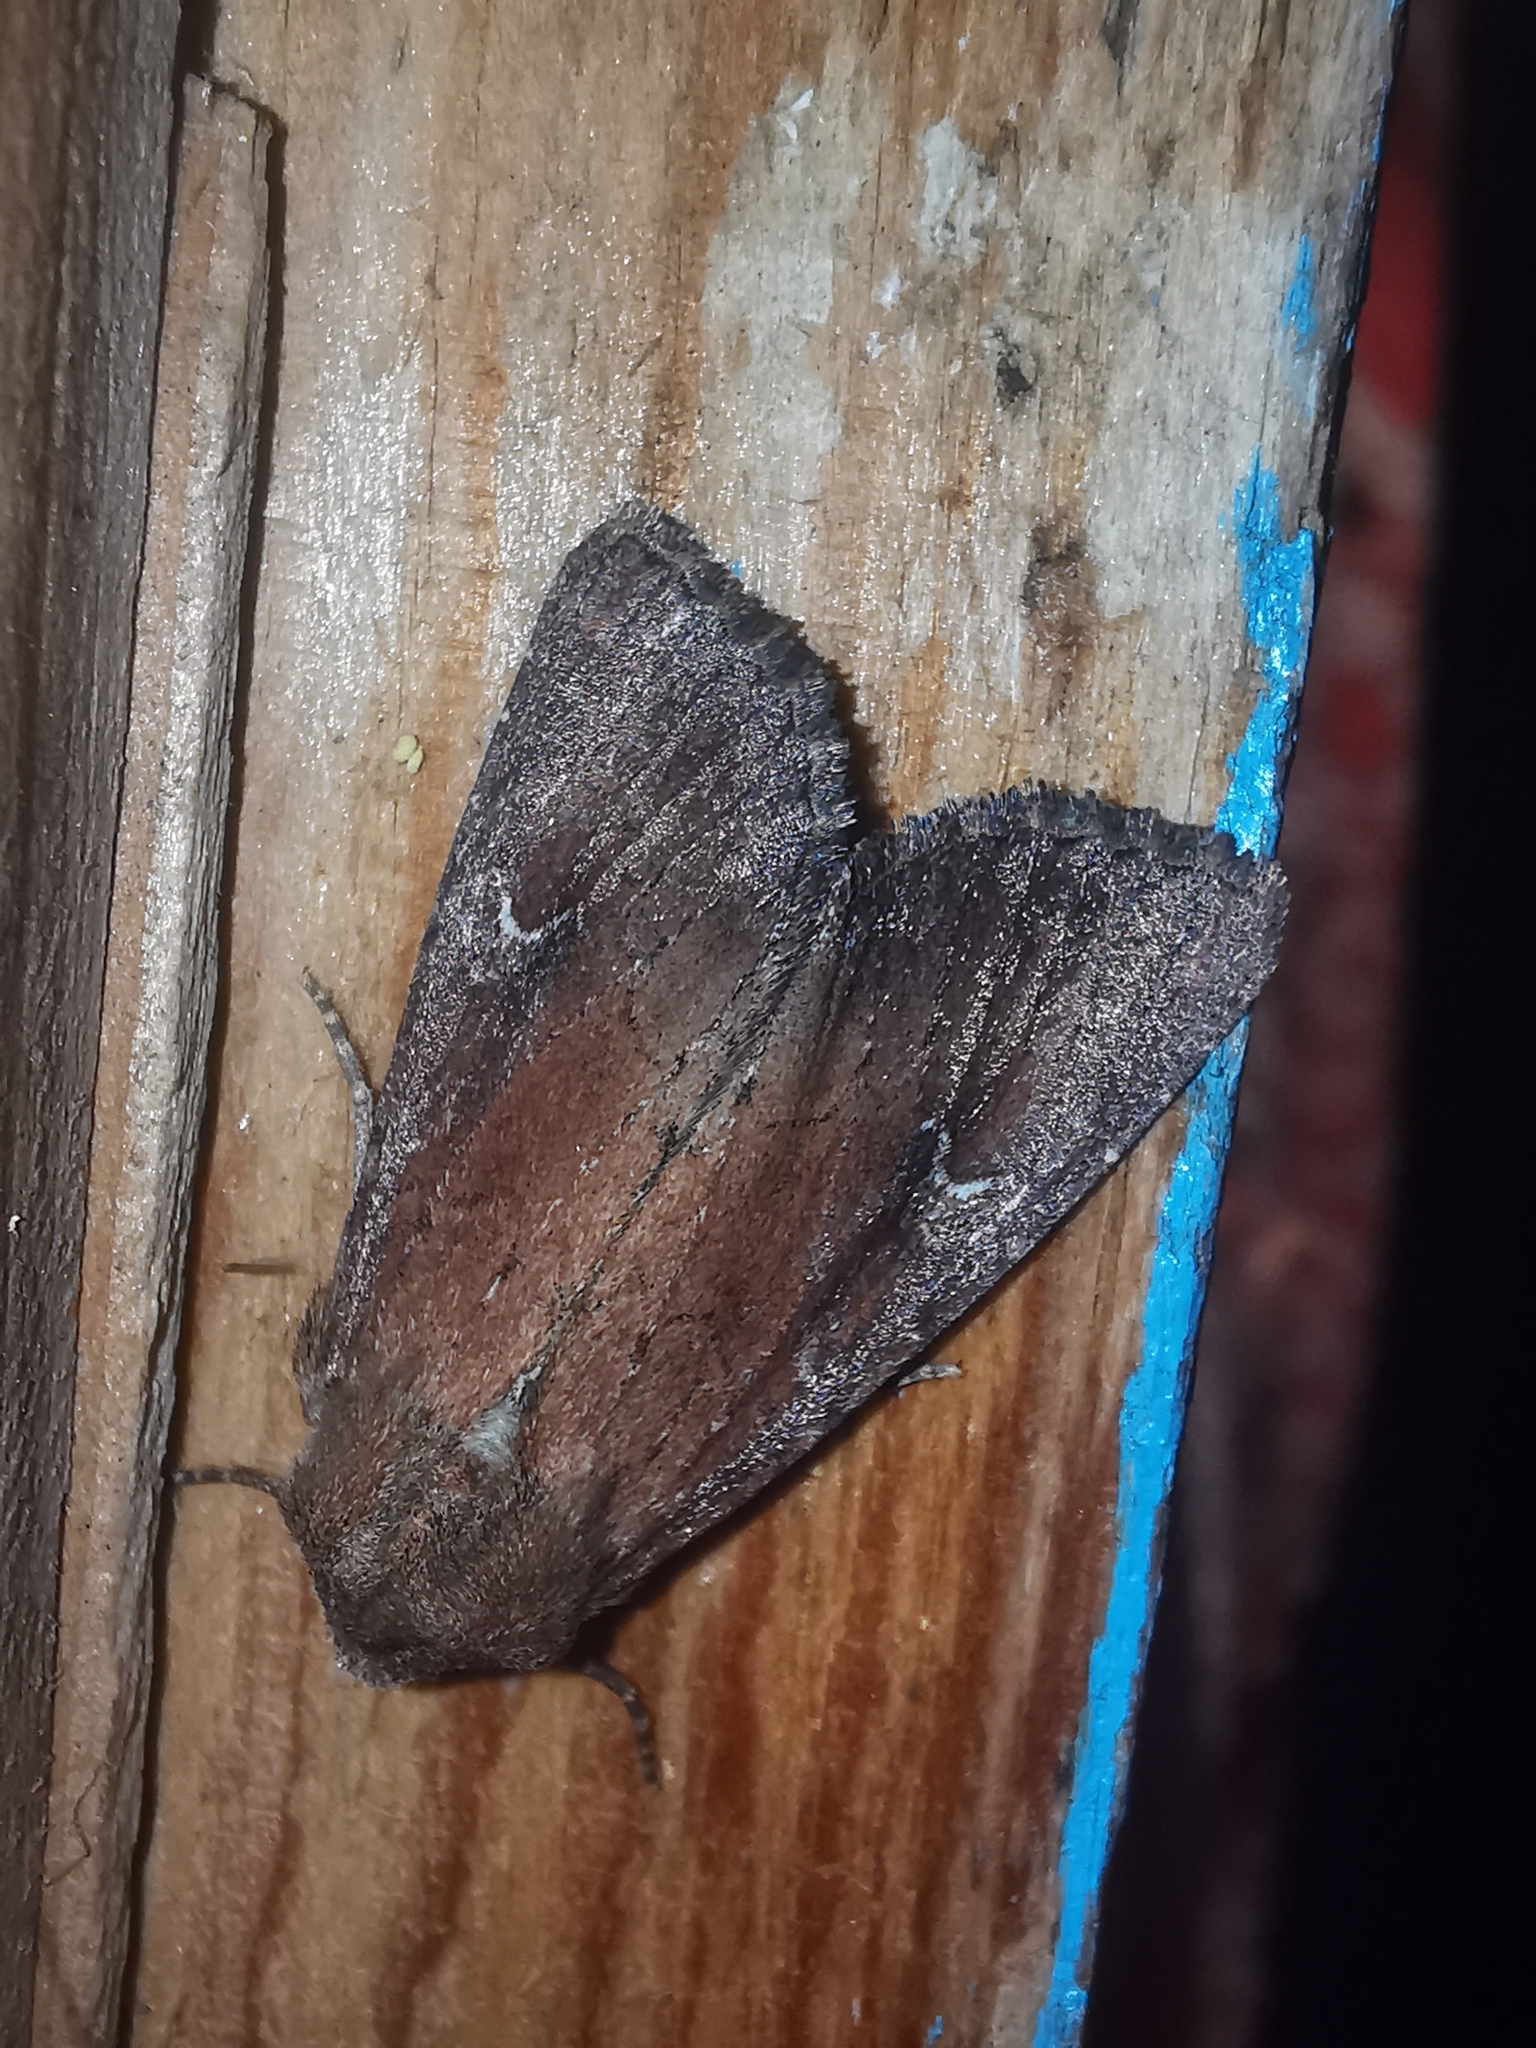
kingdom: Animalia
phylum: Arthropoda
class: Insecta
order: Lepidoptera
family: Noctuidae
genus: Apamea
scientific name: Apamea lateritia
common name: Scarce brindle
